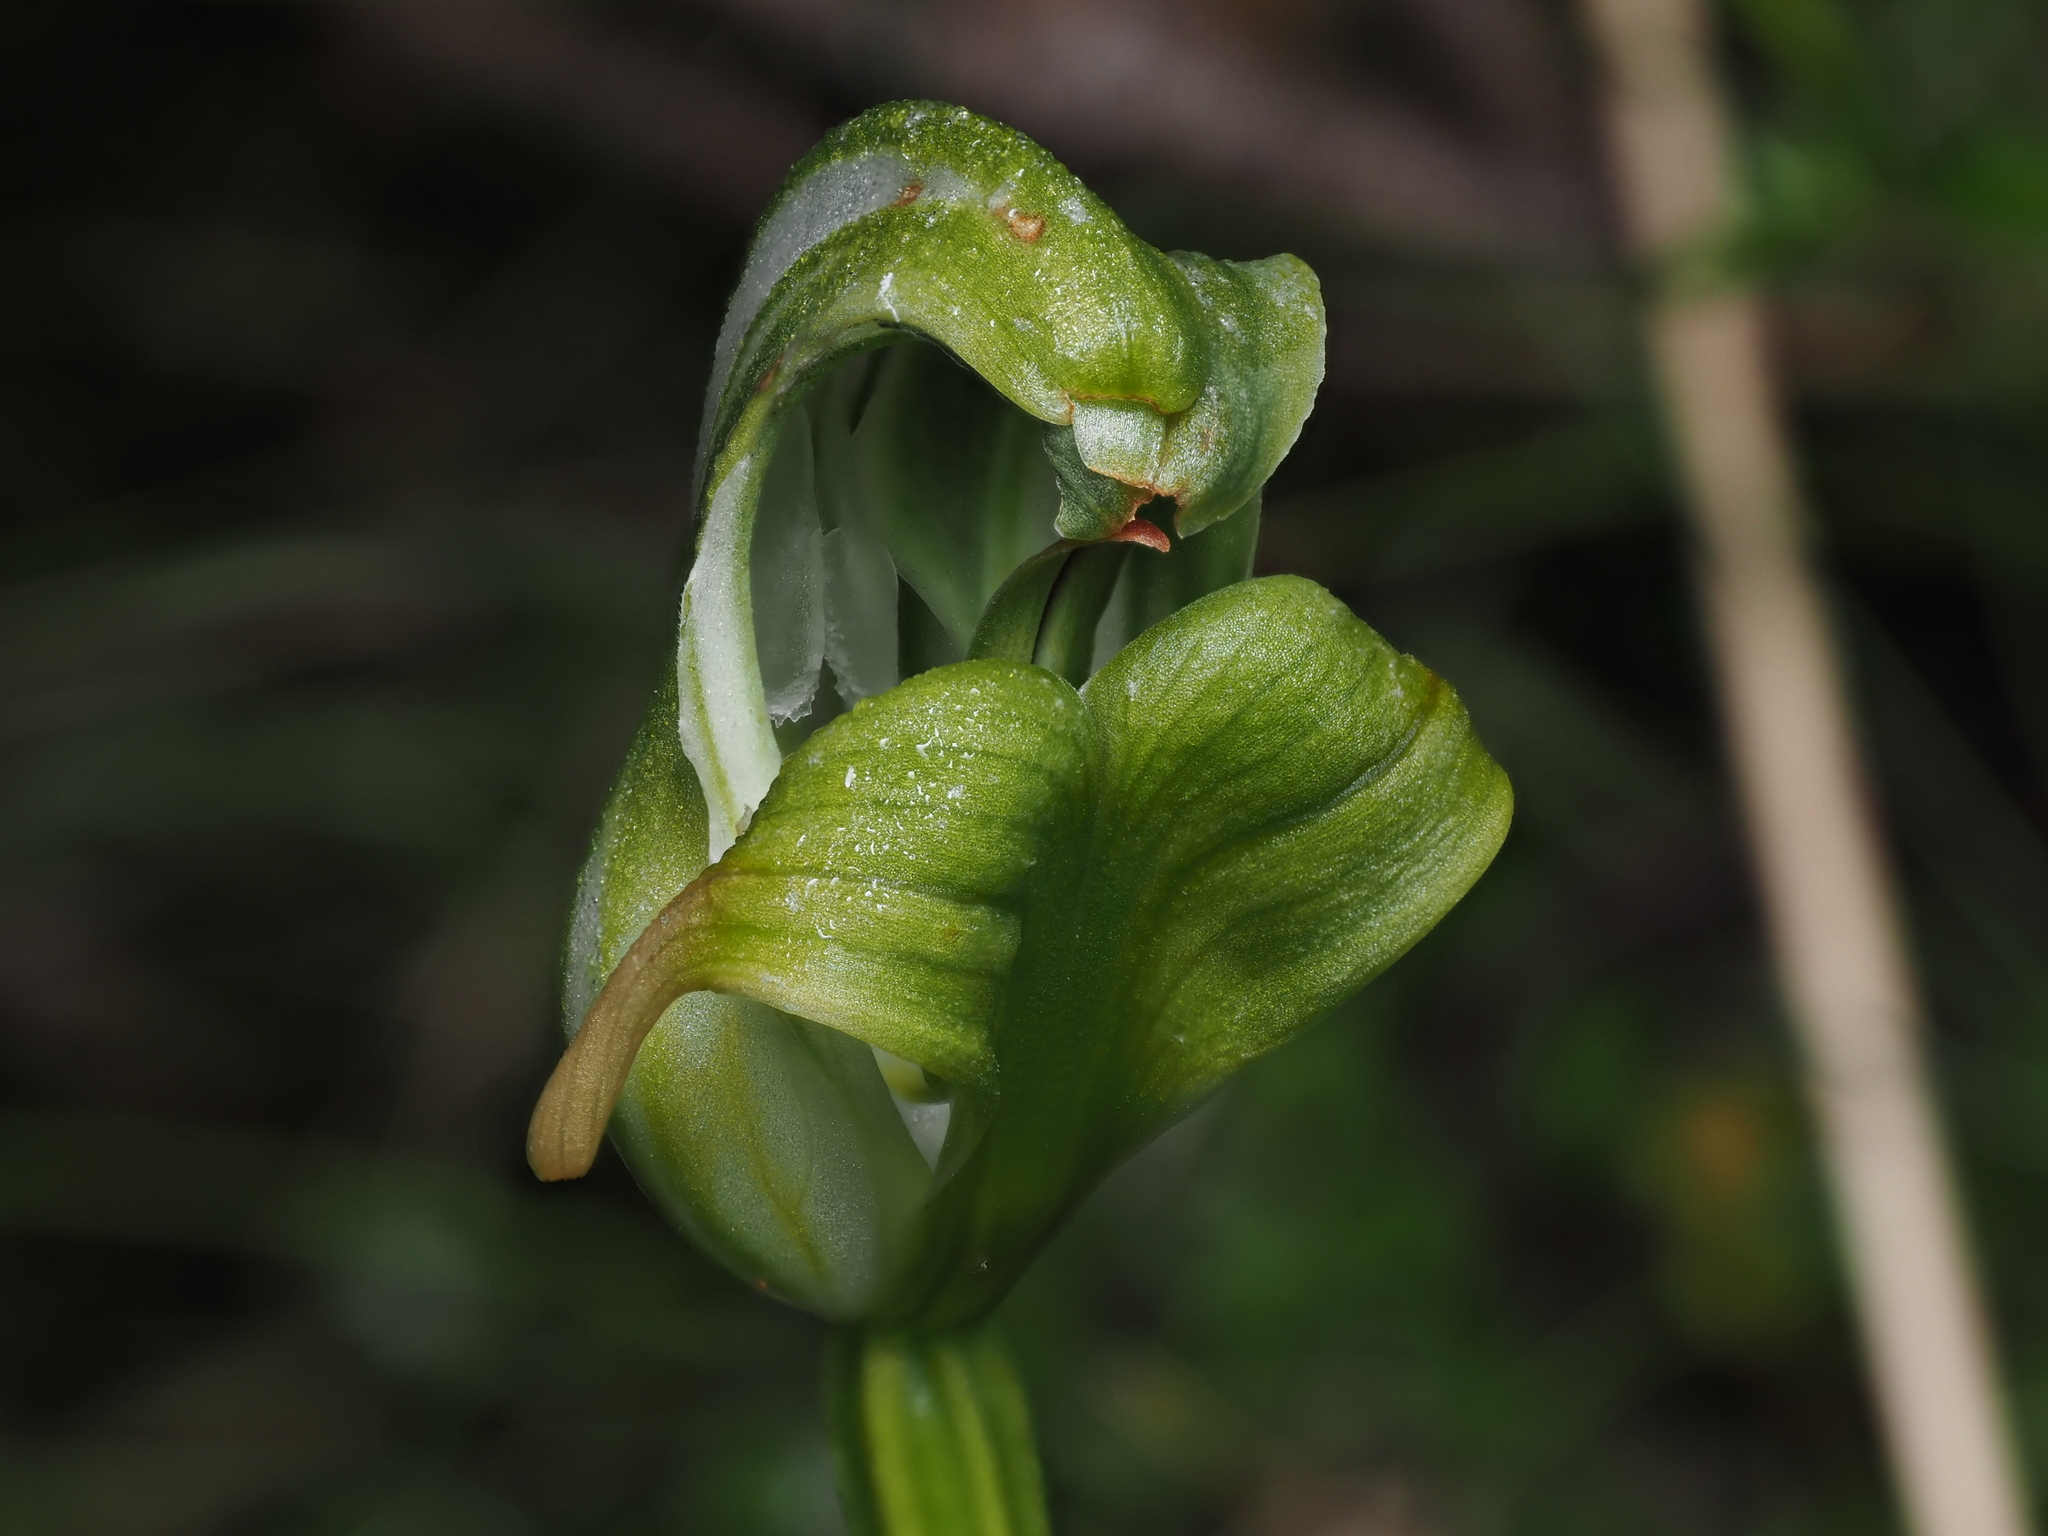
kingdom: Plantae
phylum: Tracheophyta
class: Liliopsida
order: Asparagales
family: Orchidaceae
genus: Pterostylis
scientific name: Pterostylis patens
